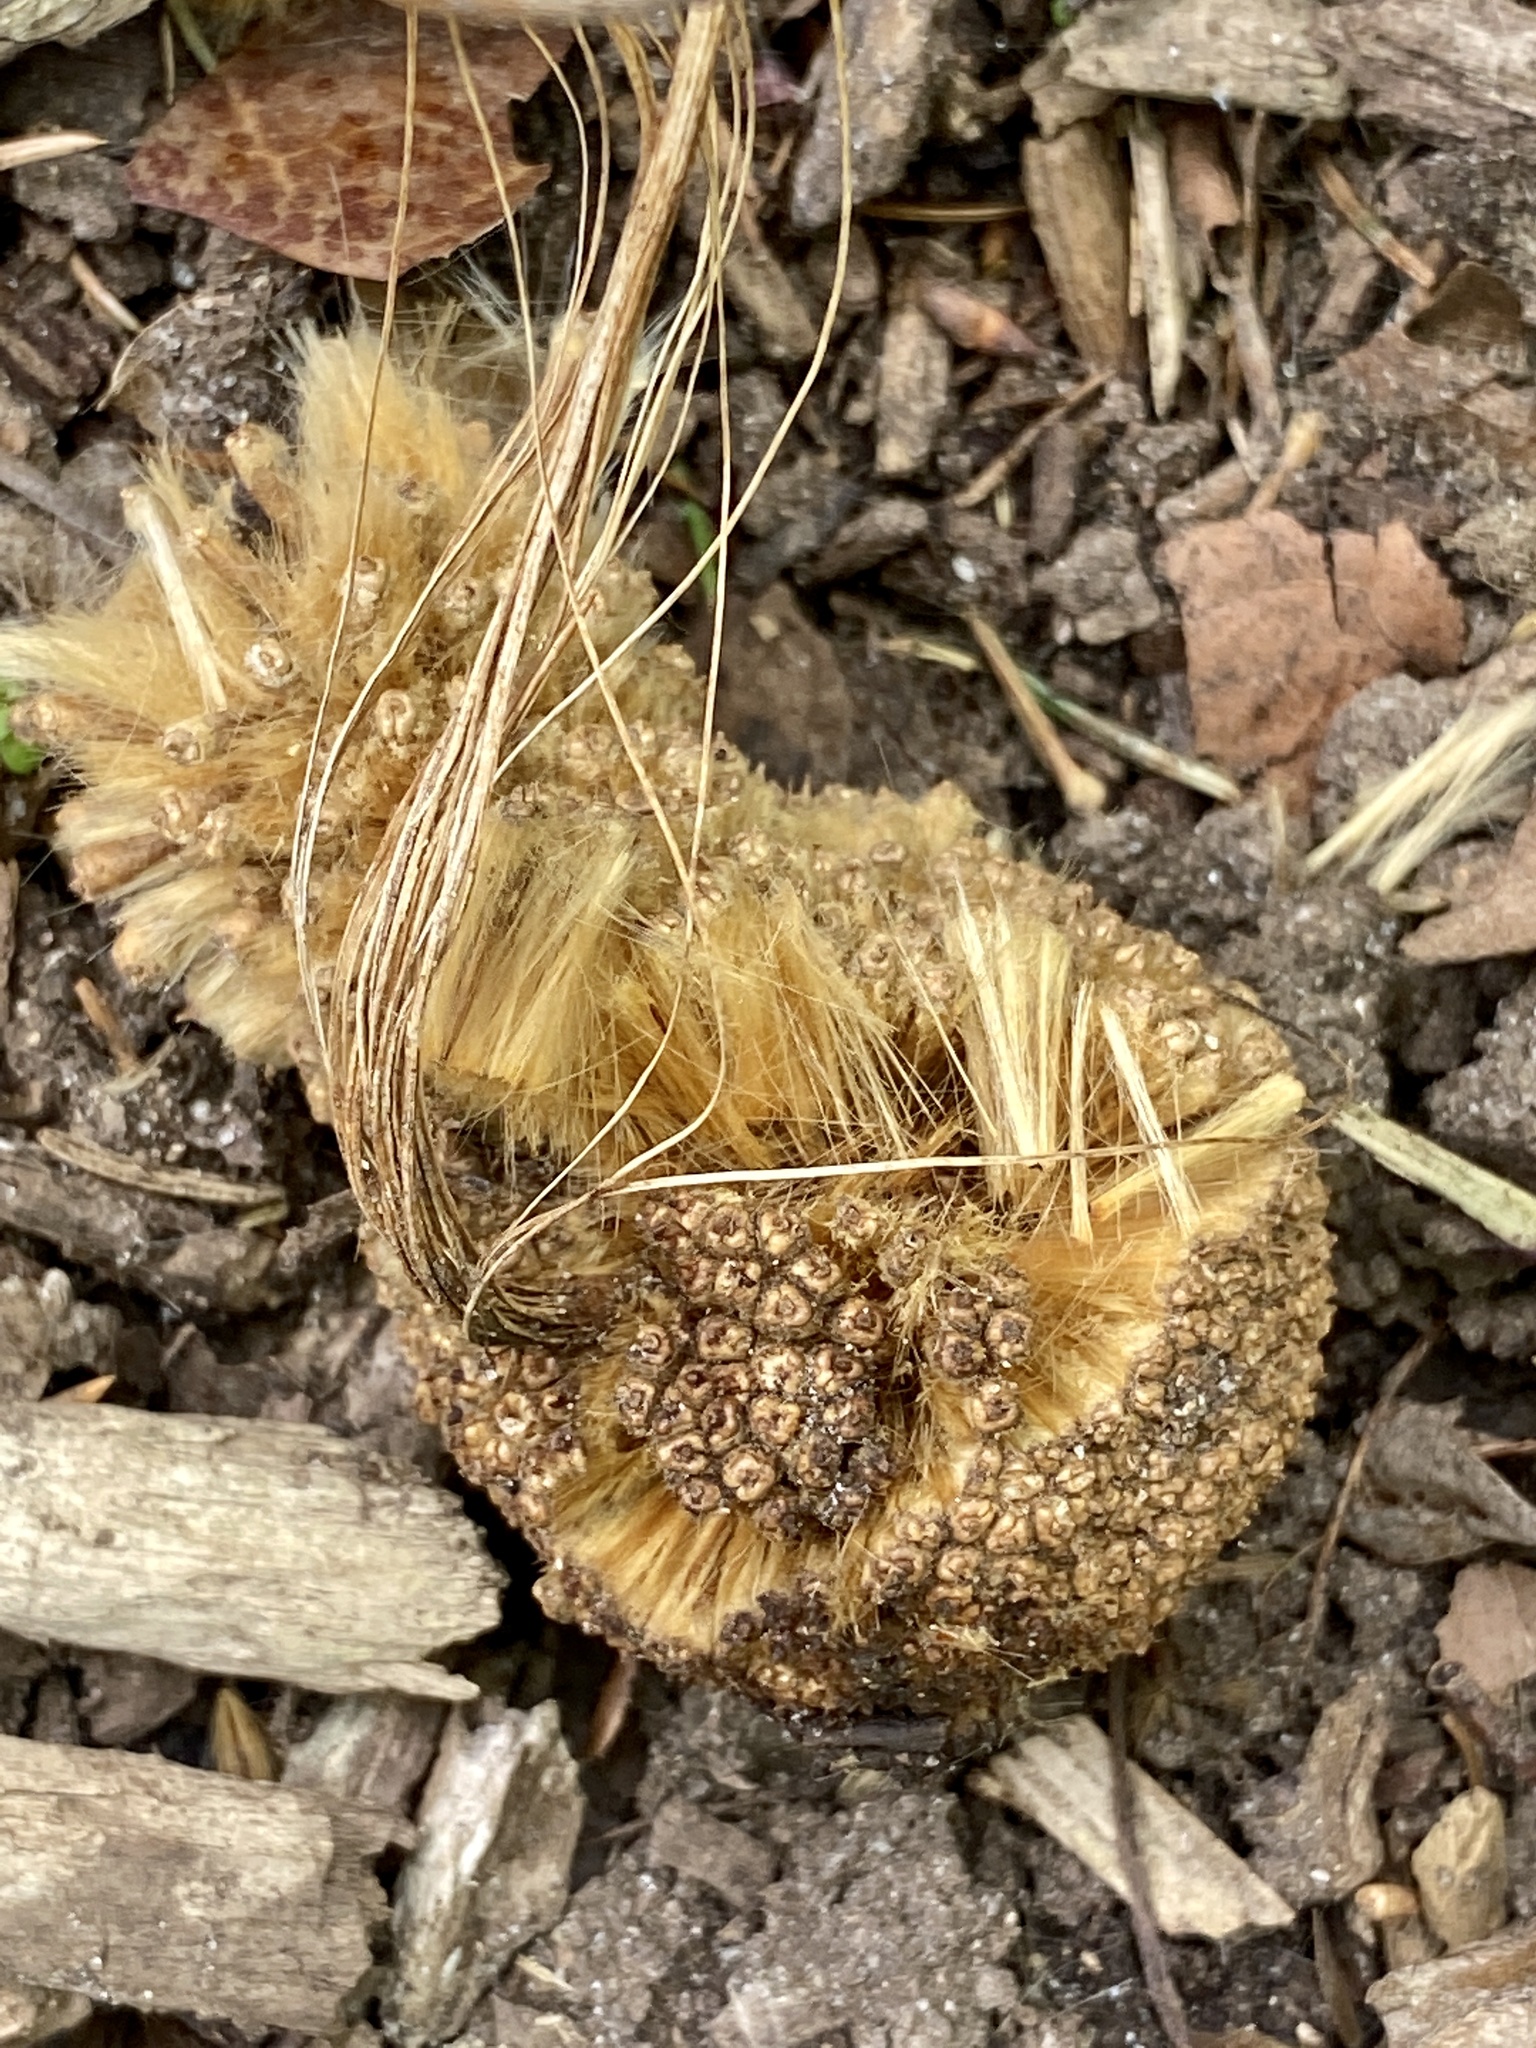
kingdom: Plantae
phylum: Tracheophyta
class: Magnoliopsida
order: Proteales
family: Platanaceae
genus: Platanus
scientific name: Platanus occidentalis
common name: American sycamore
